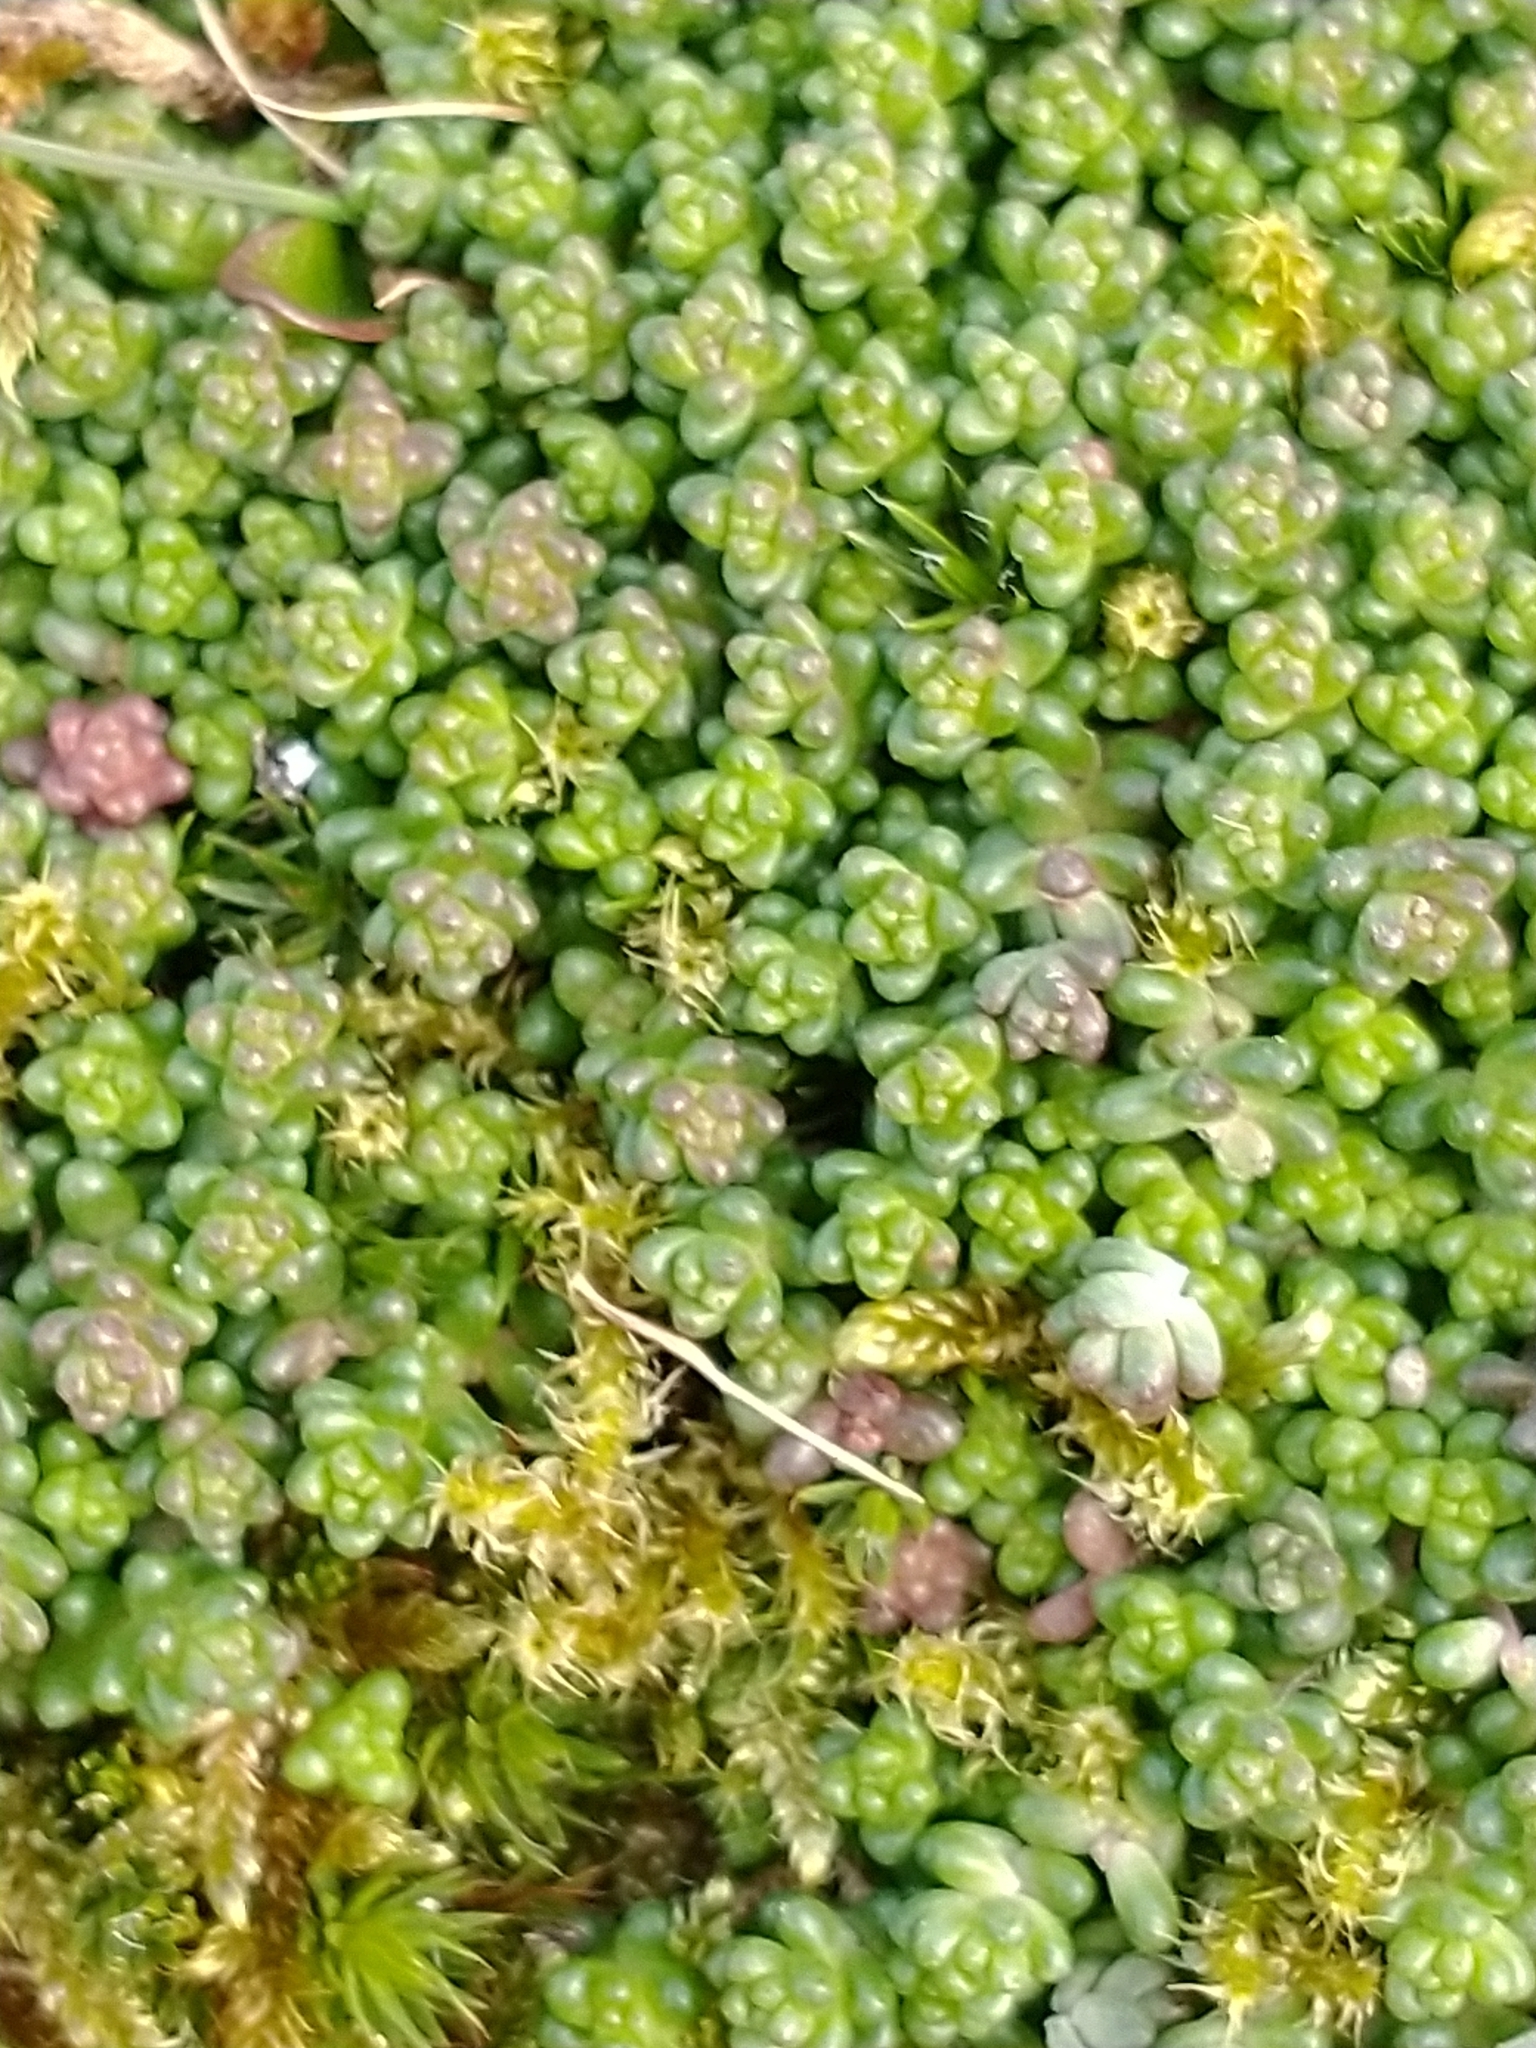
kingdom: Plantae
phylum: Tracheophyta
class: Magnoliopsida
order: Saxifragales
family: Crassulaceae
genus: Sedum
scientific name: Sedum anglicum
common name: English stonecrop
